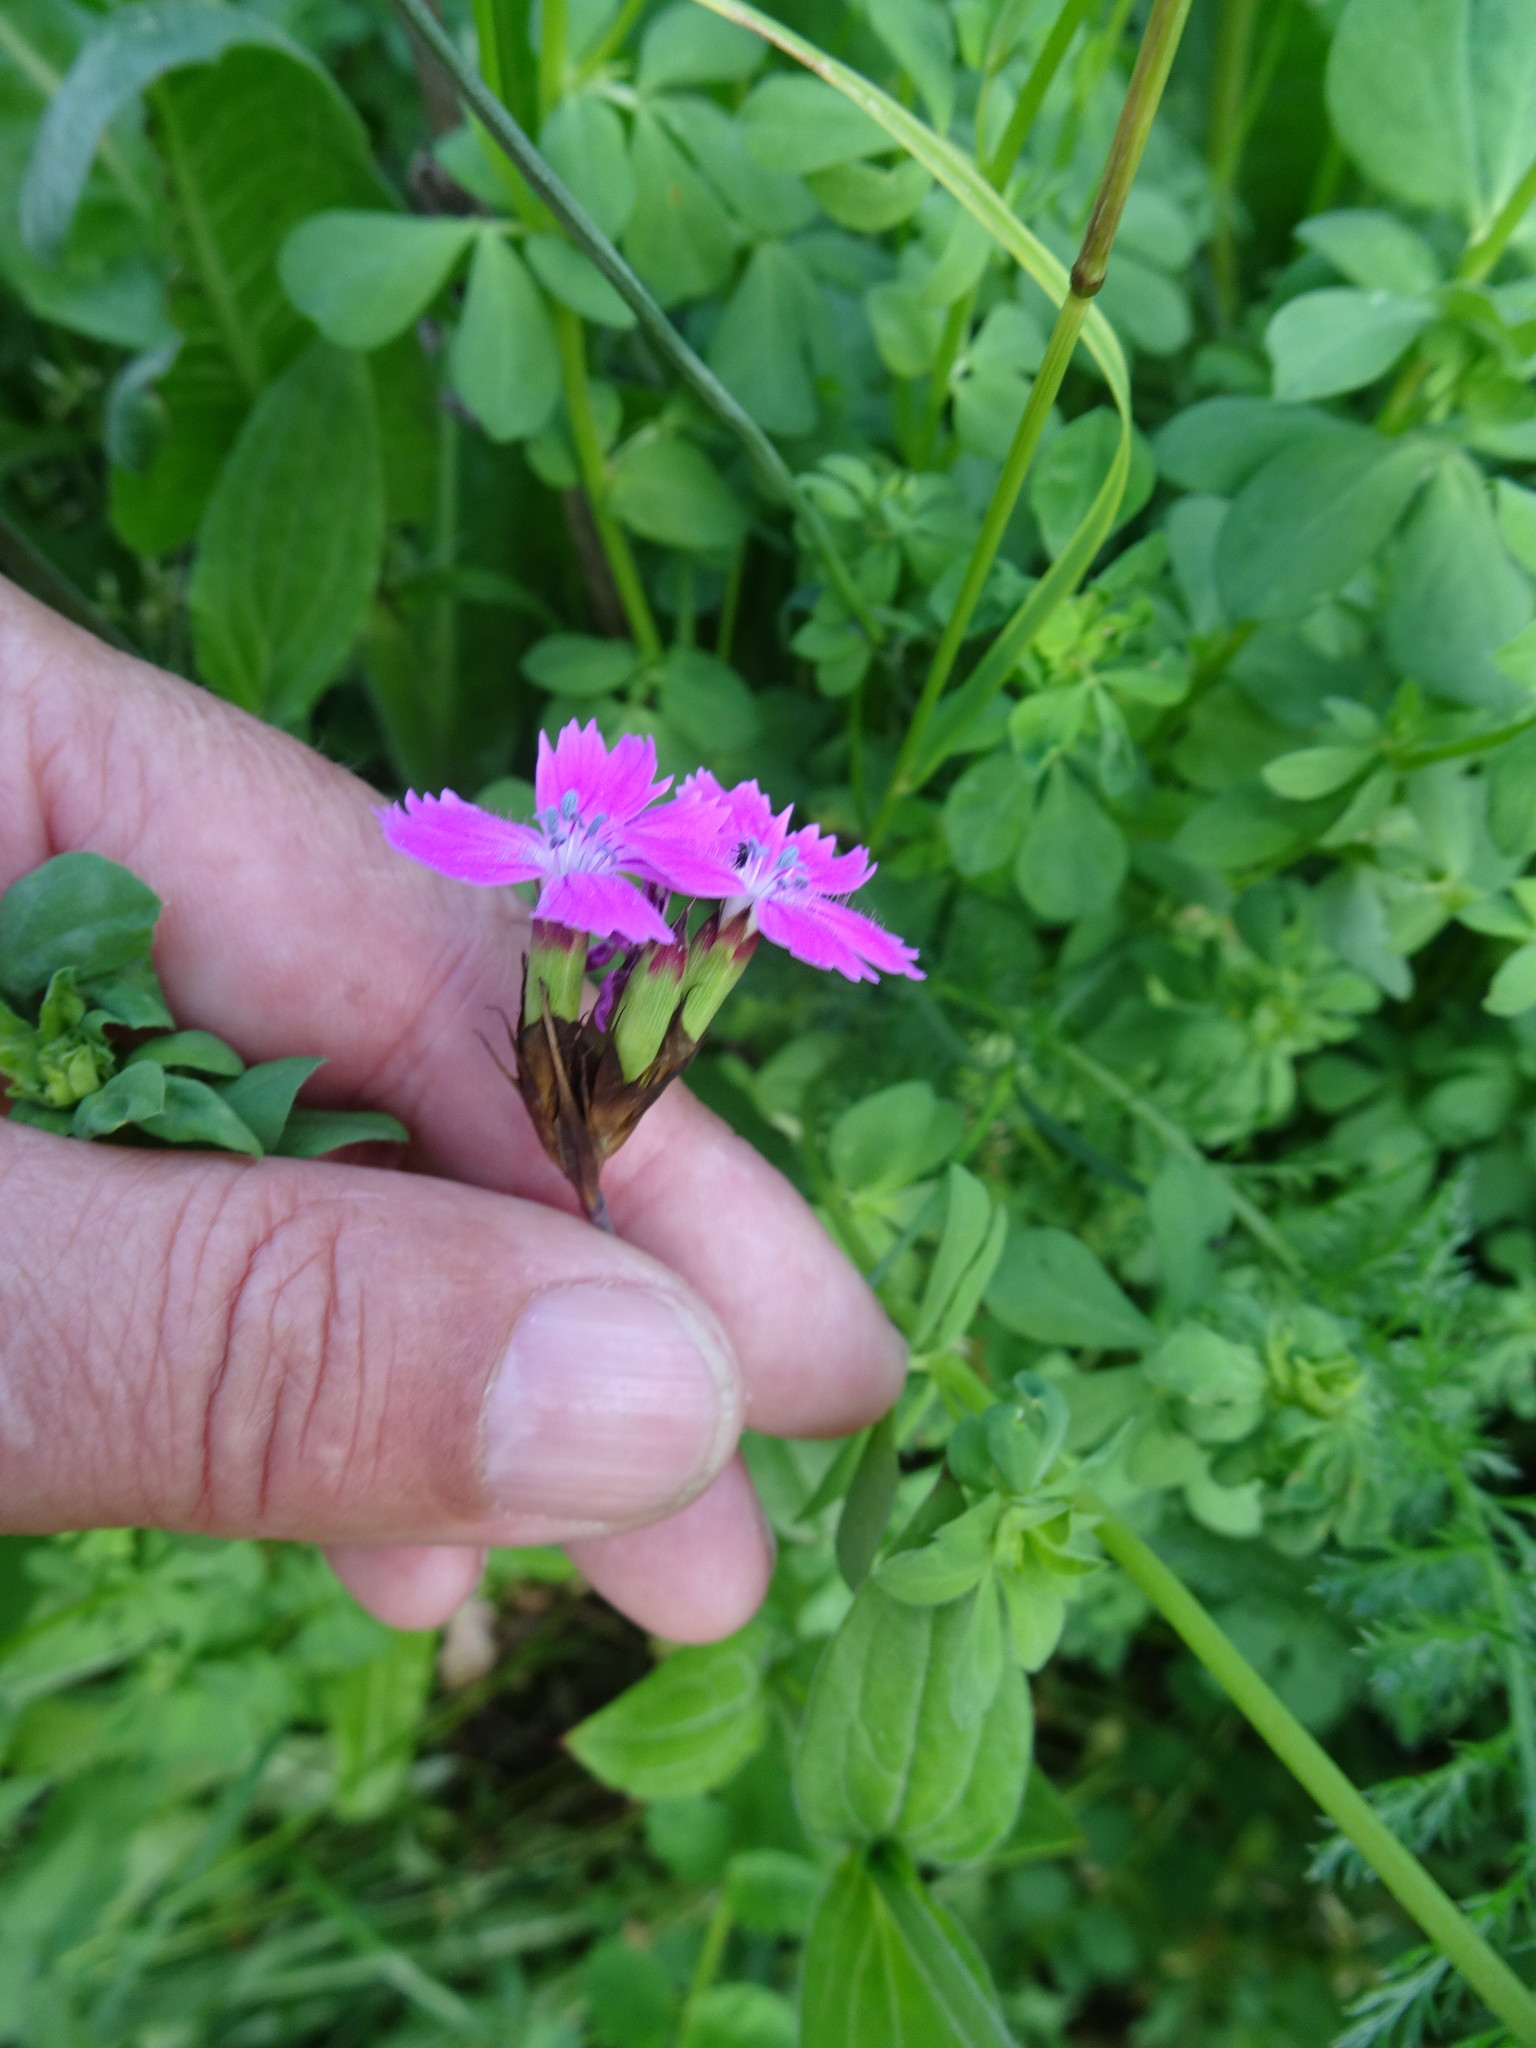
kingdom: Plantae
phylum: Tracheophyta
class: Magnoliopsida
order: Caryophyllales
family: Caryophyllaceae
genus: Dianthus
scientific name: Dianthus carthusianorum
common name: Carthusian pink
